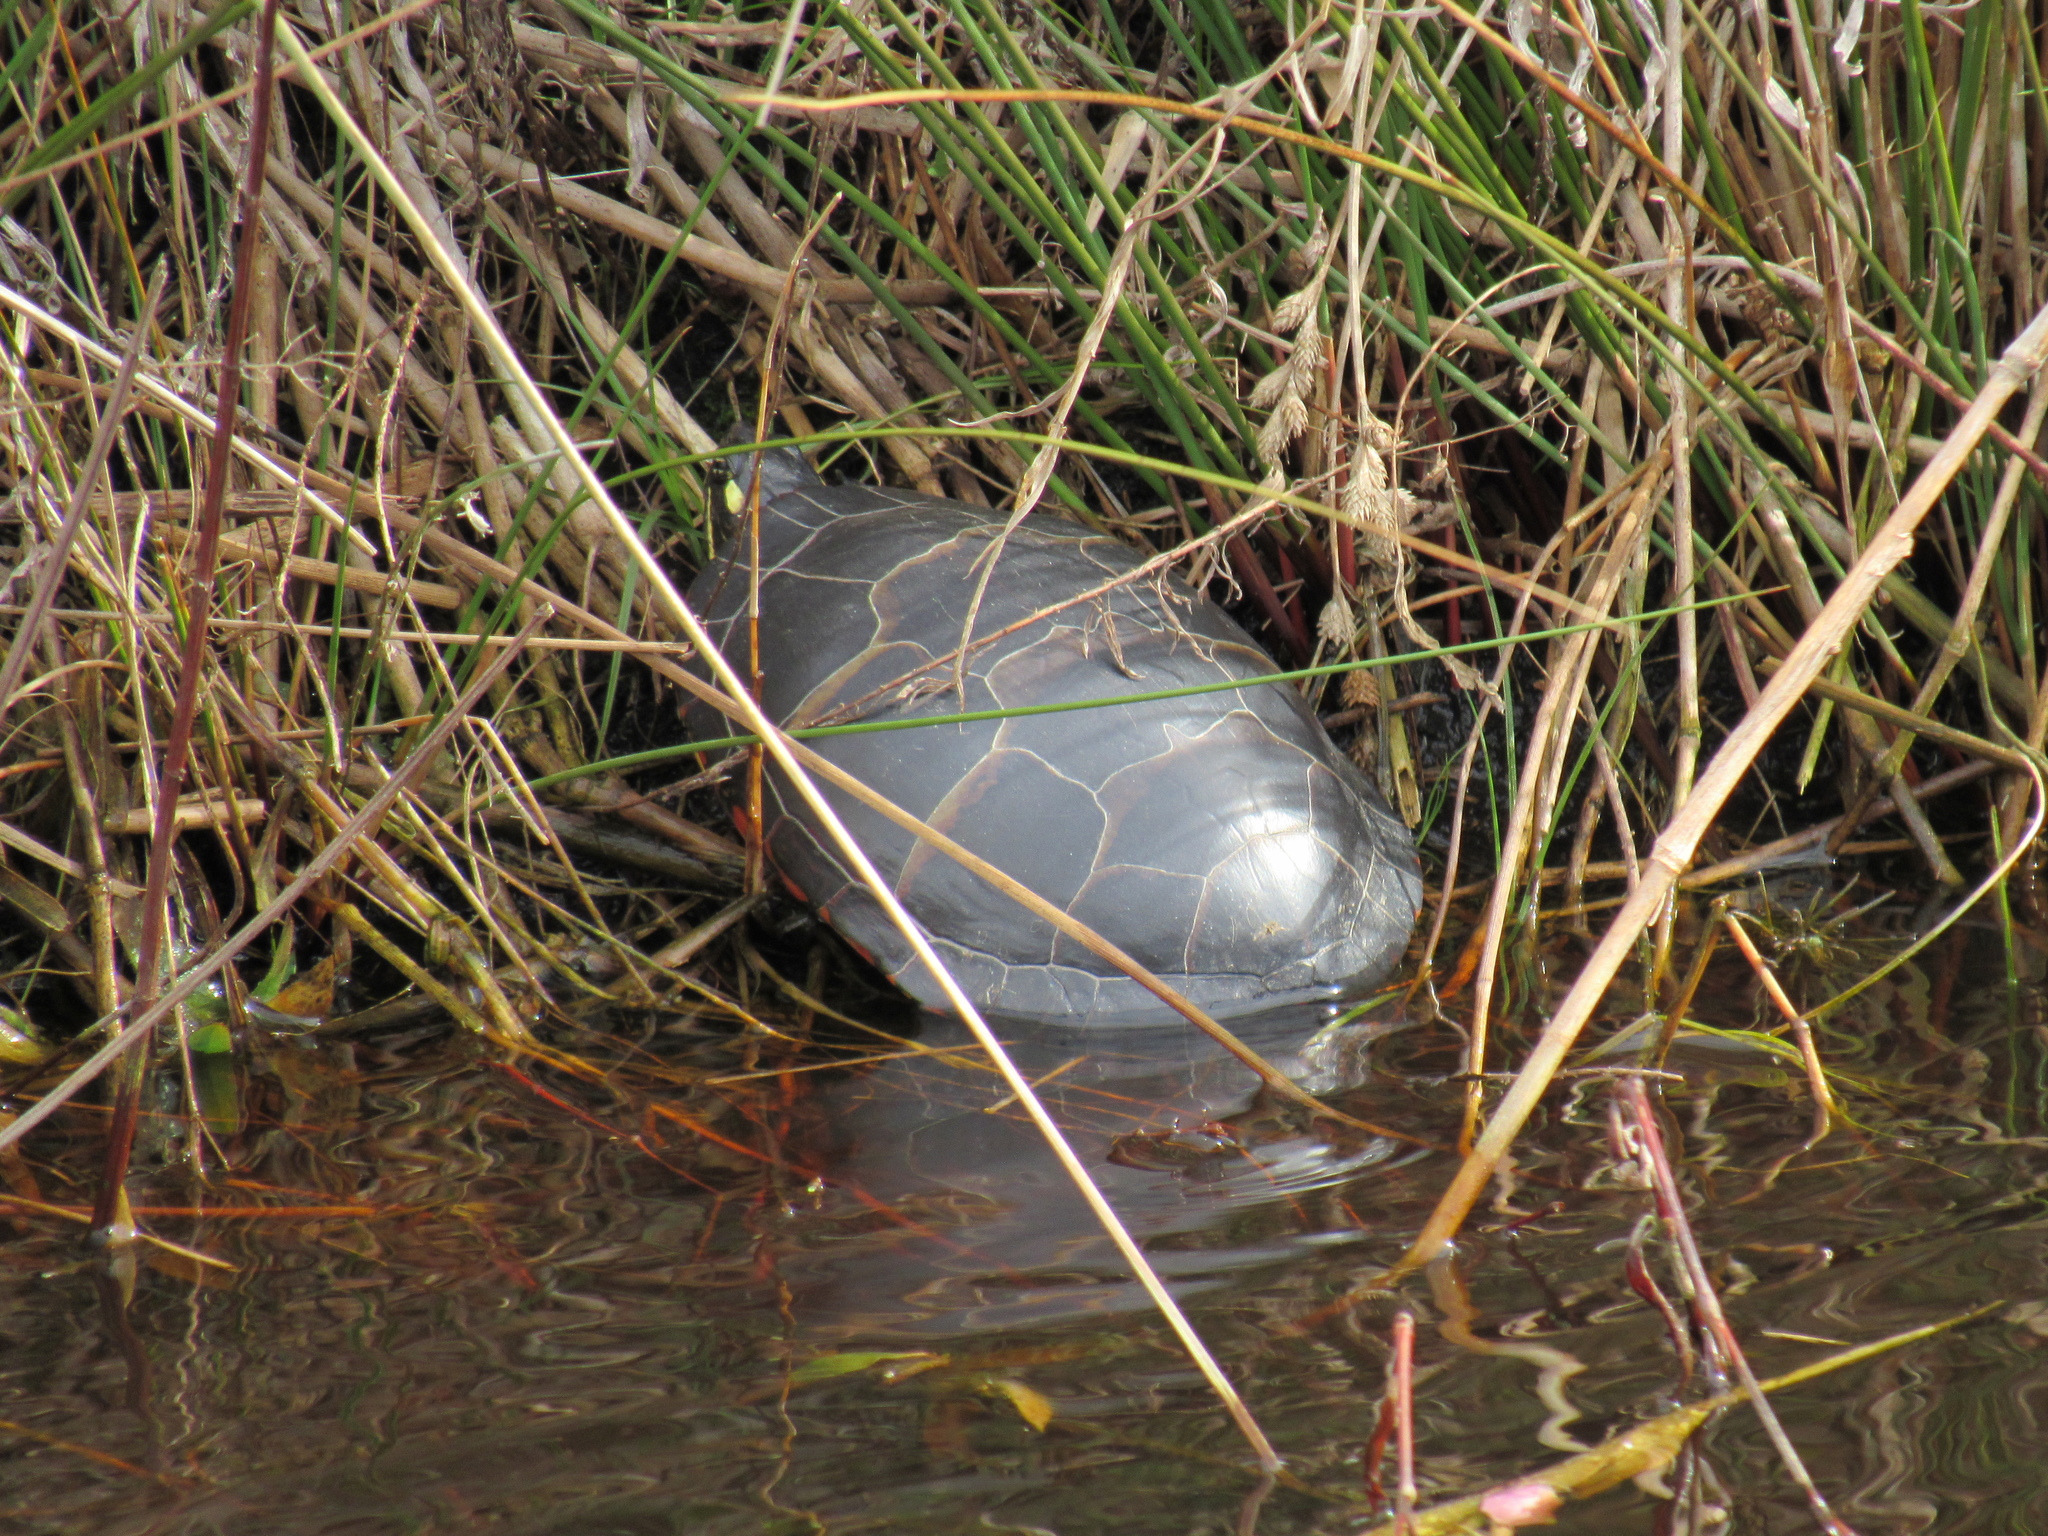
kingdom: Animalia
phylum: Chordata
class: Testudines
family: Emydidae
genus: Chrysemys
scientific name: Chrysemys picta
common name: Painted turtle
